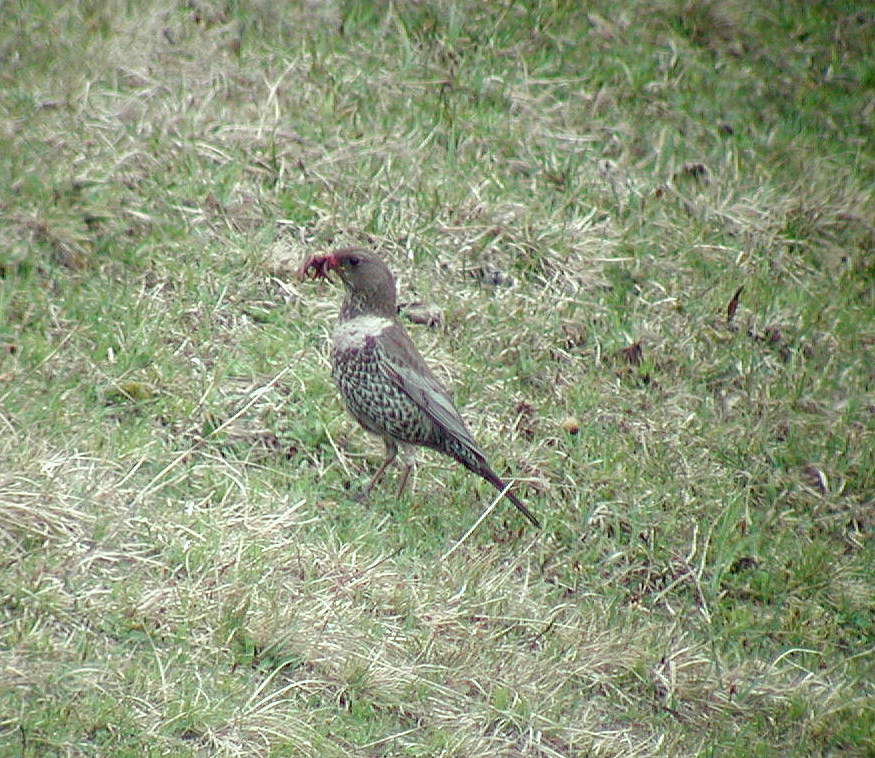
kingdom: Animalia
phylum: Chordata
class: Aves
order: Passeriformes
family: Turdidae
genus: Turdus
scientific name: Turdus torquatus
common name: Ring ouzel
